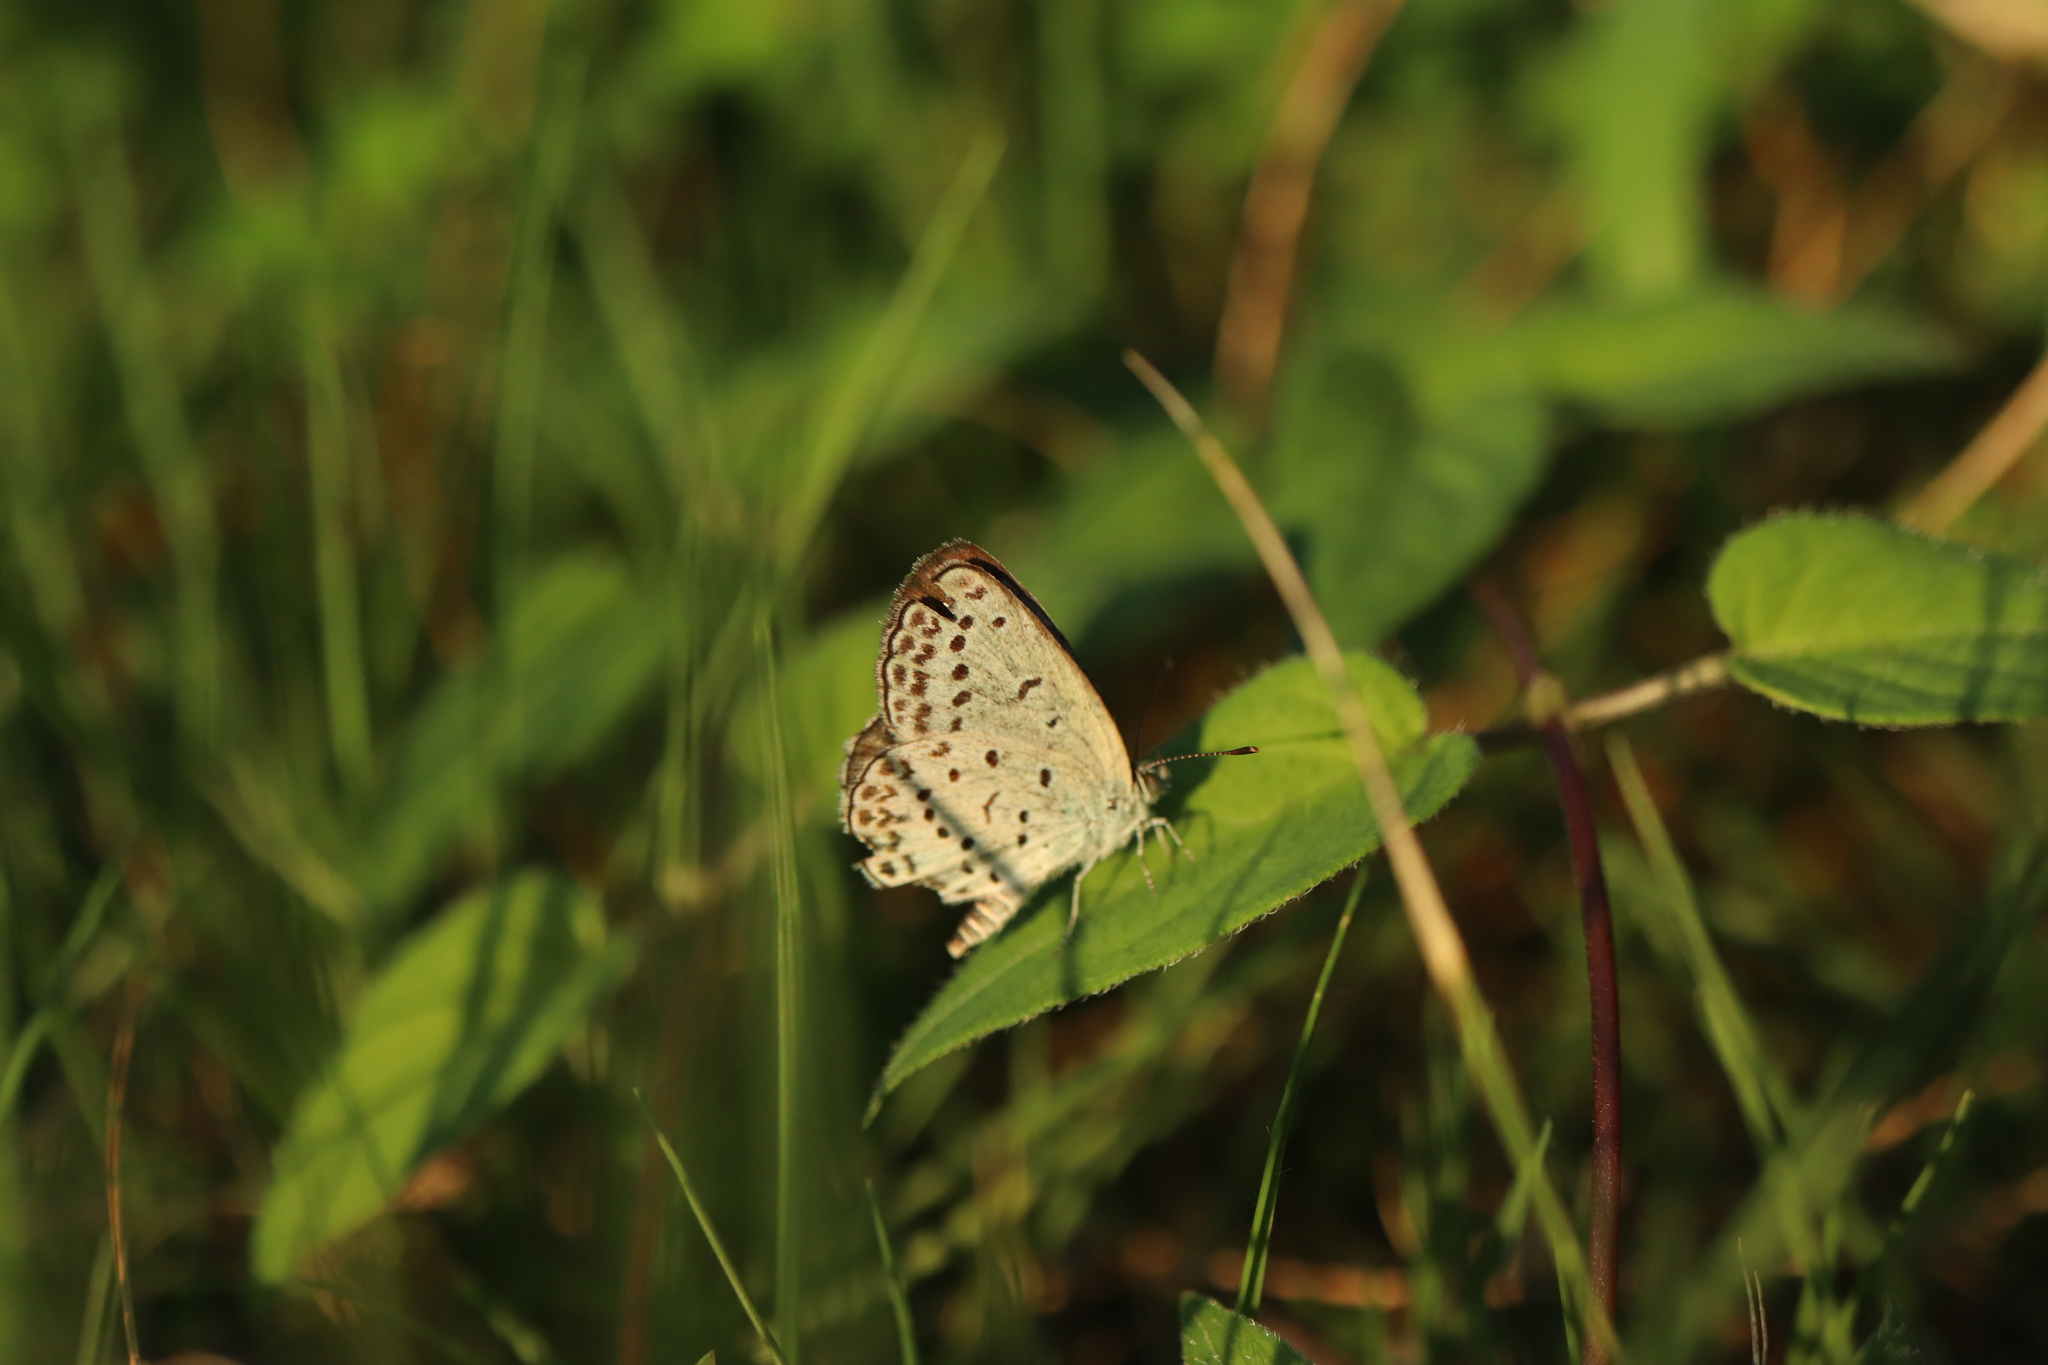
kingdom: Animalia
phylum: Arthropoda
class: Insecta
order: Lepidoptera
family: Lycaenidae
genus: Pseudozizeeria
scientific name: Pseudozizeeria maha
